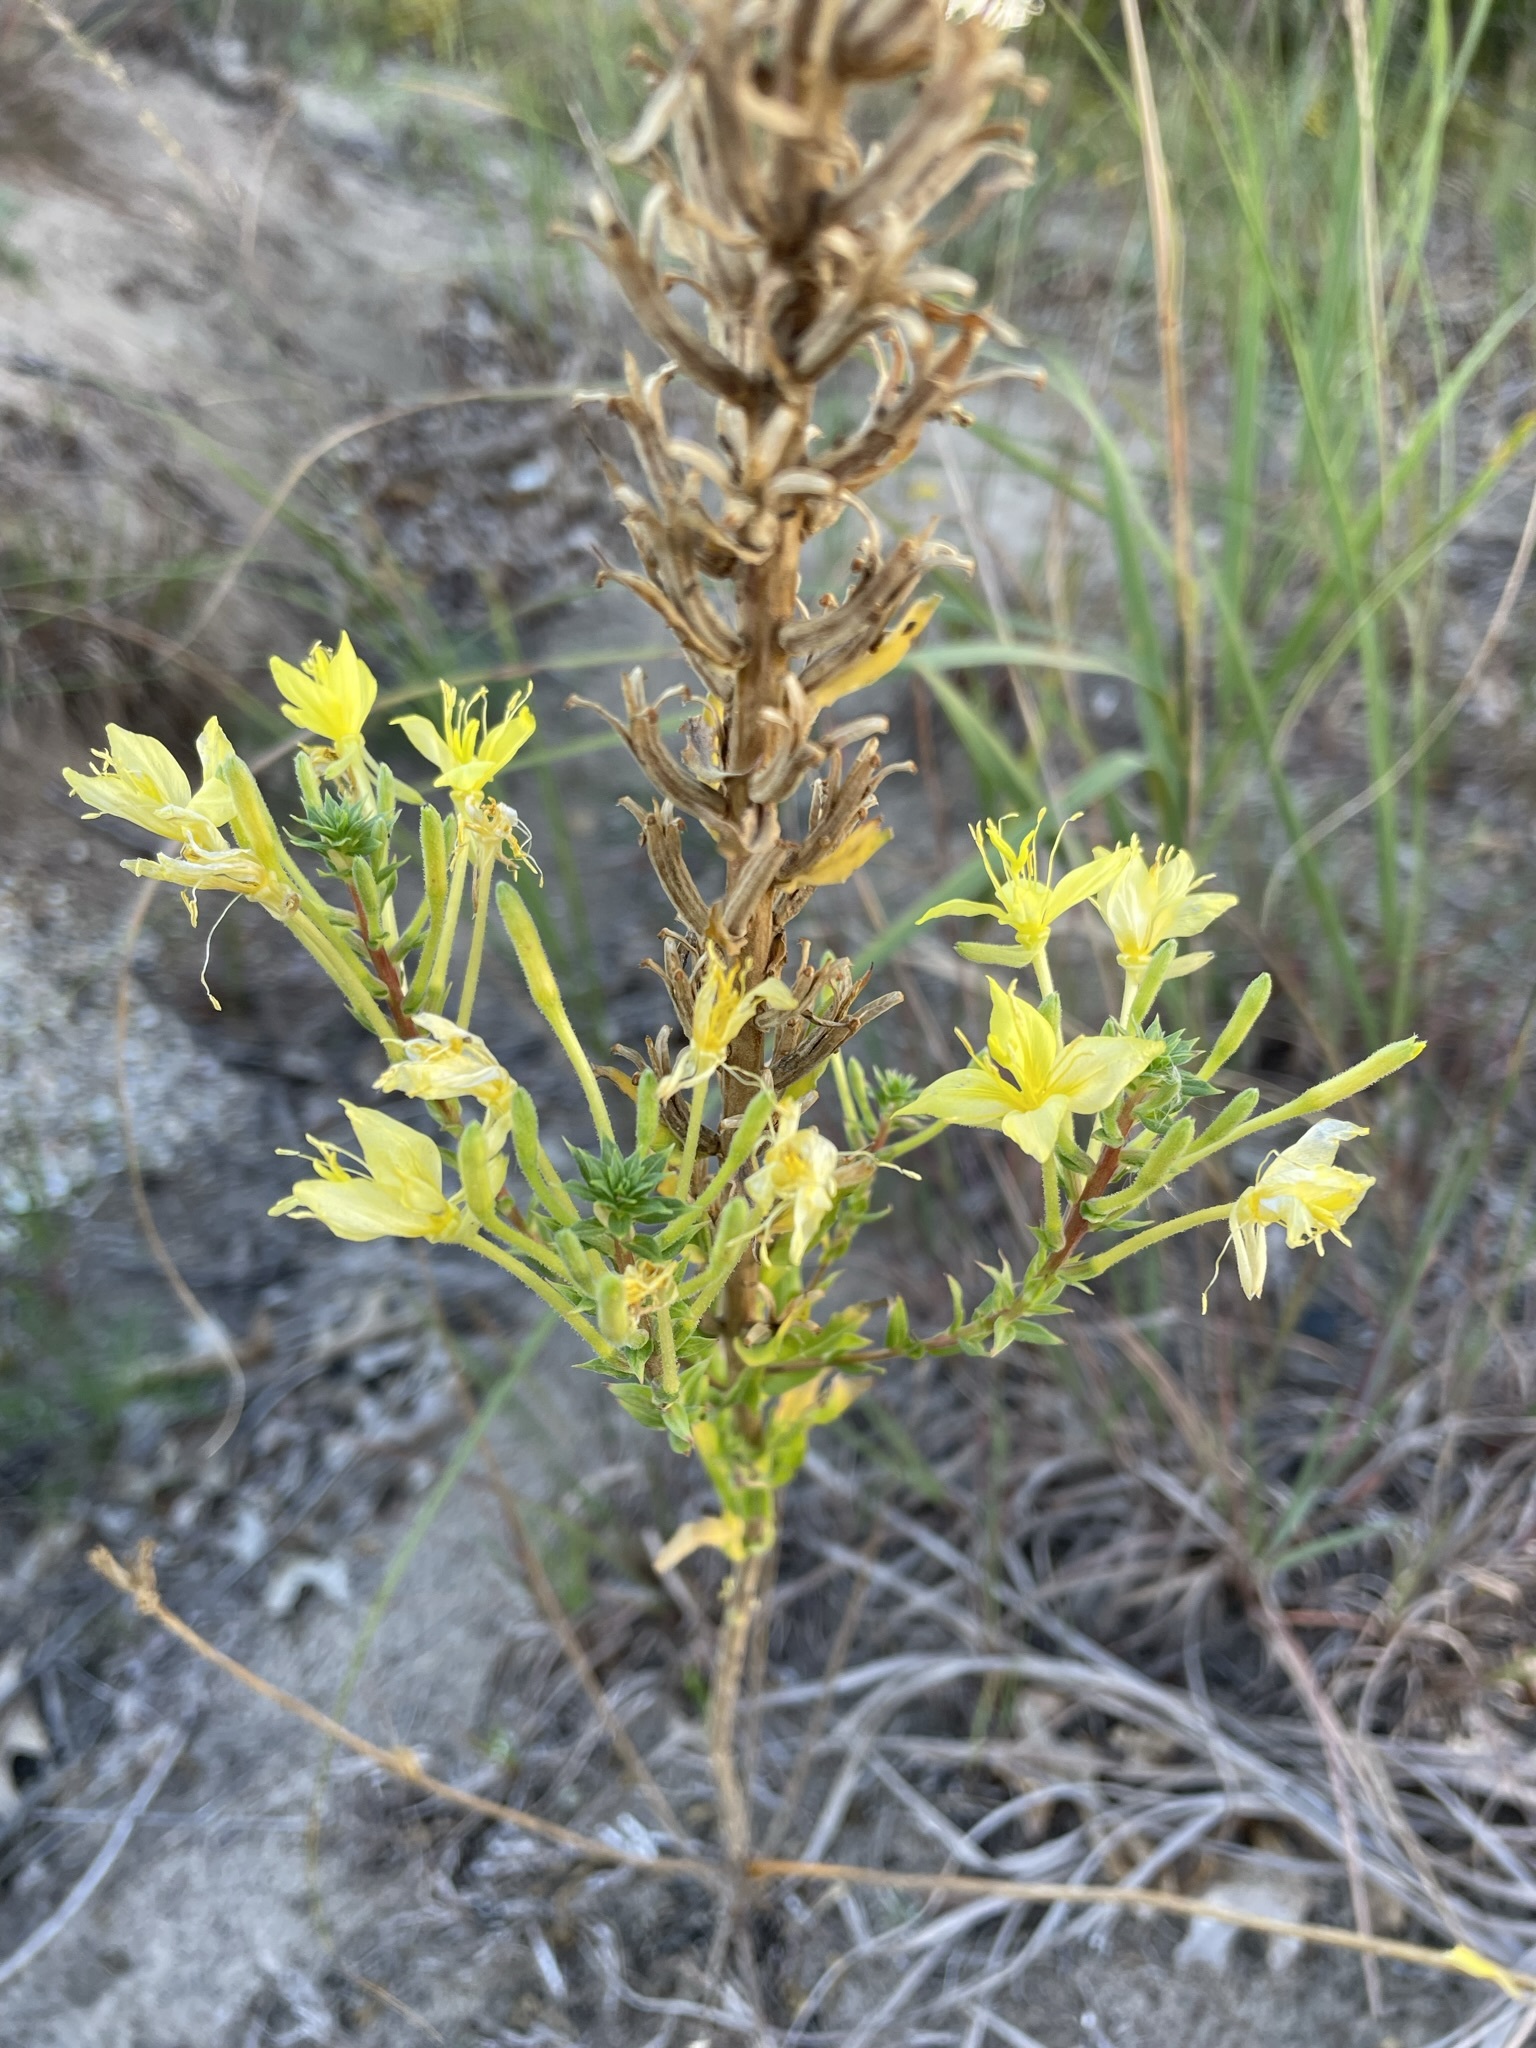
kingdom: Plantae
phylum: Tracheophyta
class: Magnoliopsida
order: Myrtales
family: Onagraceae
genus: Oenothera
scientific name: Oenothera clelandii
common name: Cleland's evening-primrose
